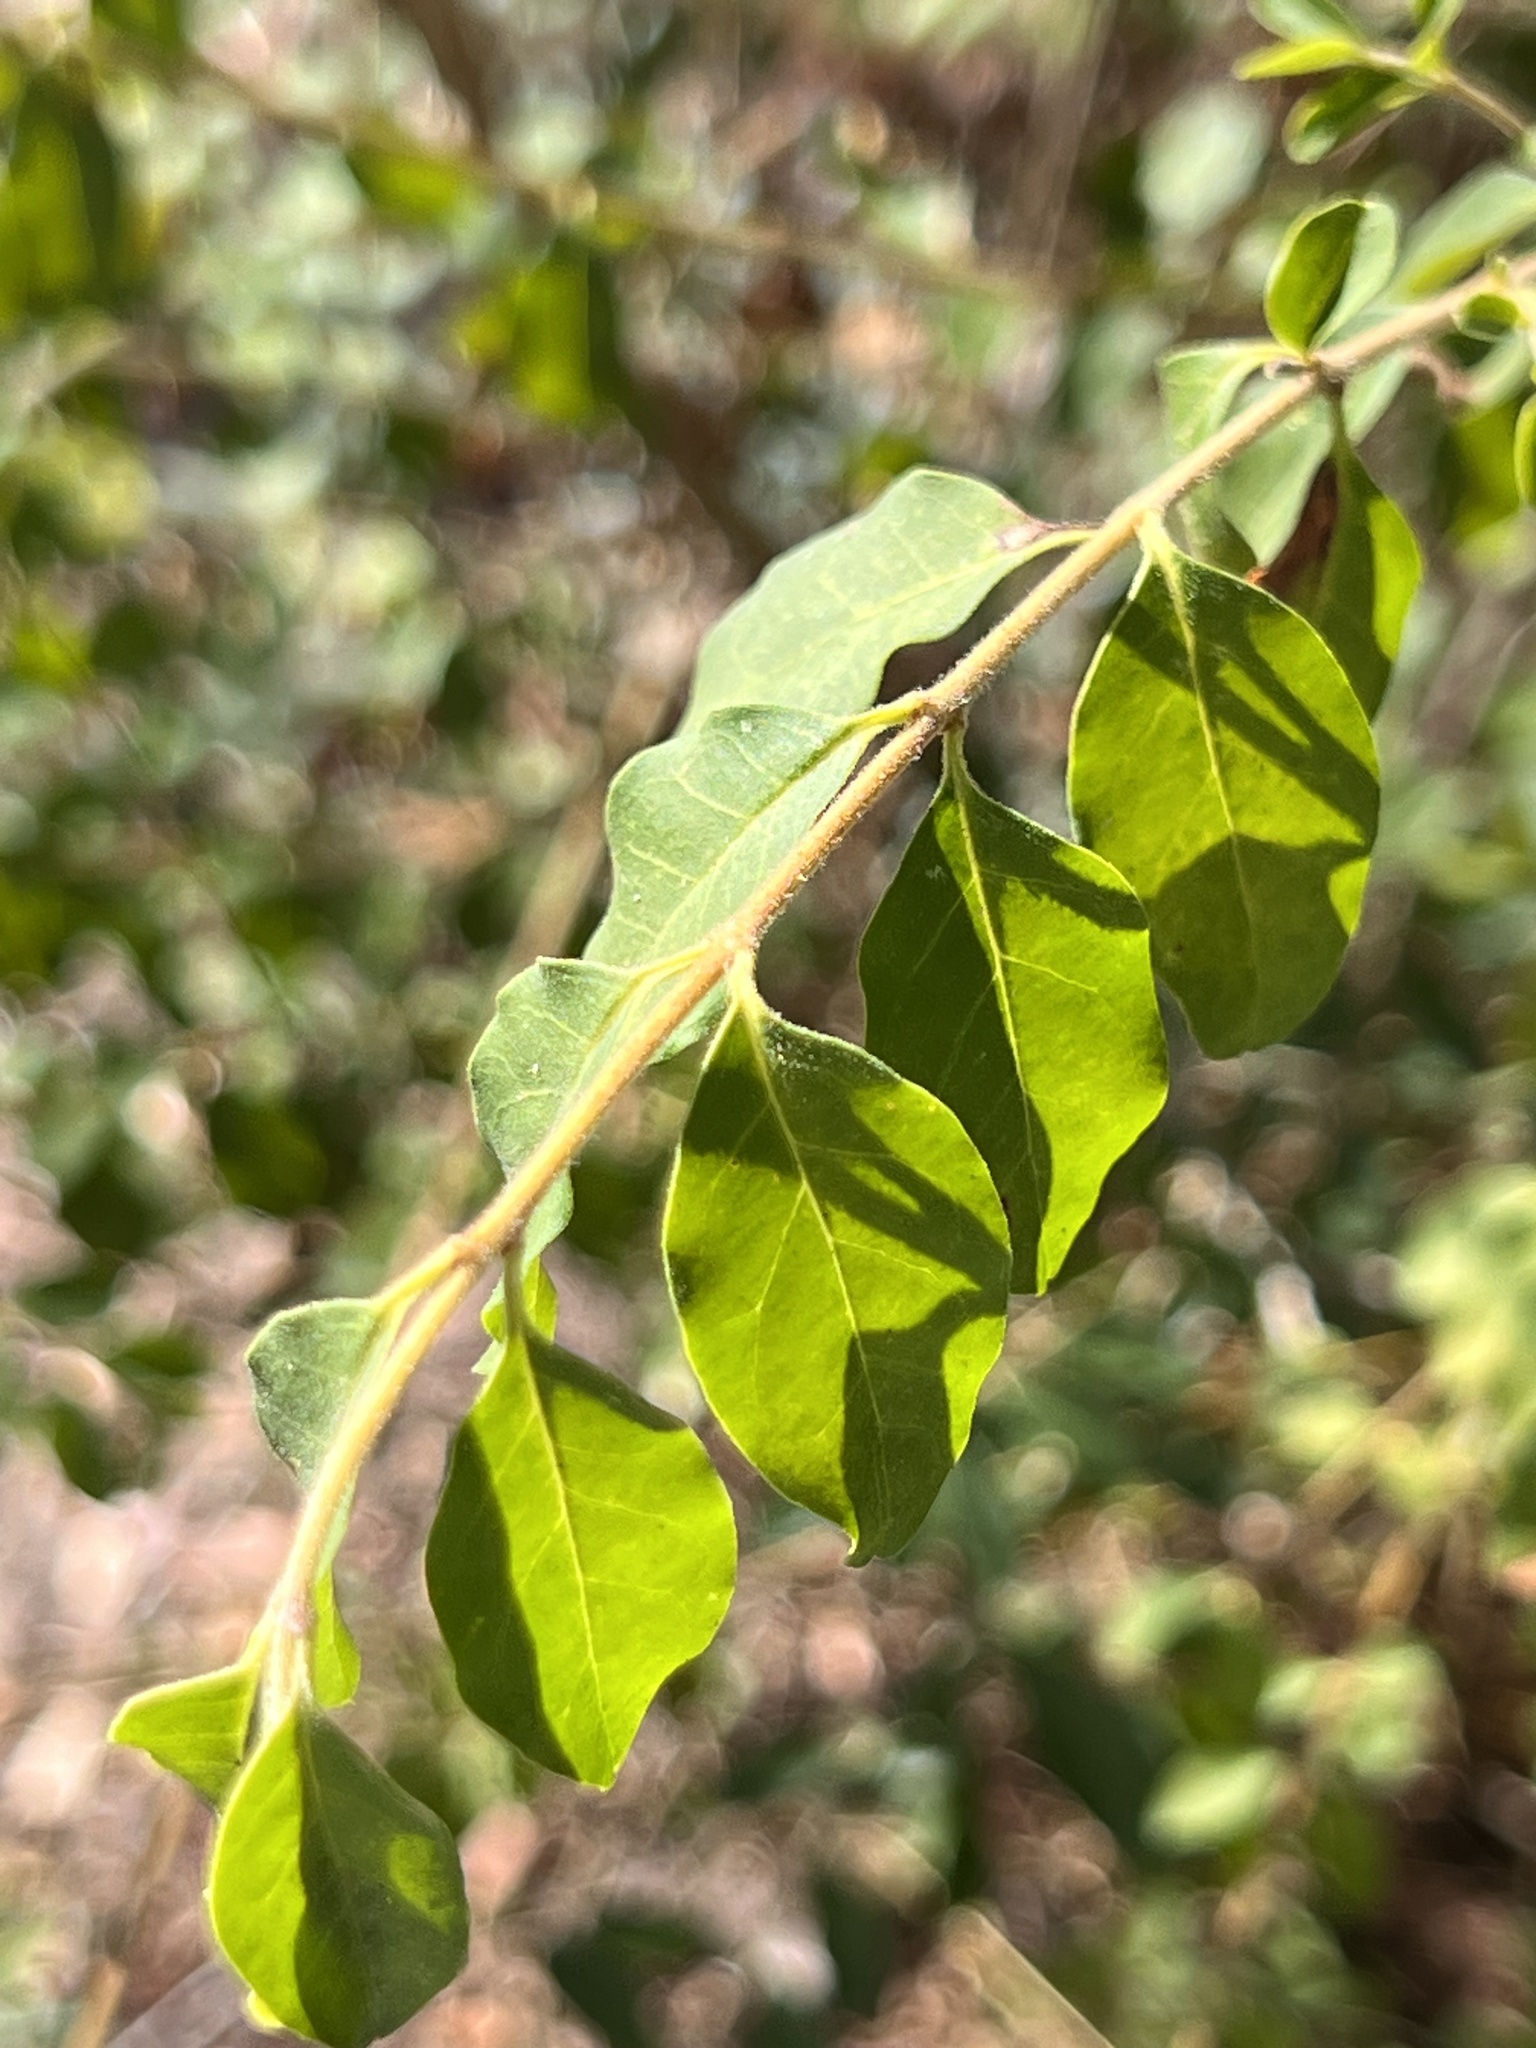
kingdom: Plantae
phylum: Tracheophyta
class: Magnoliopsida
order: Lamiales
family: Oleaceae
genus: Ligustrum
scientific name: Ligustrum sinense
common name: Chinese privet
